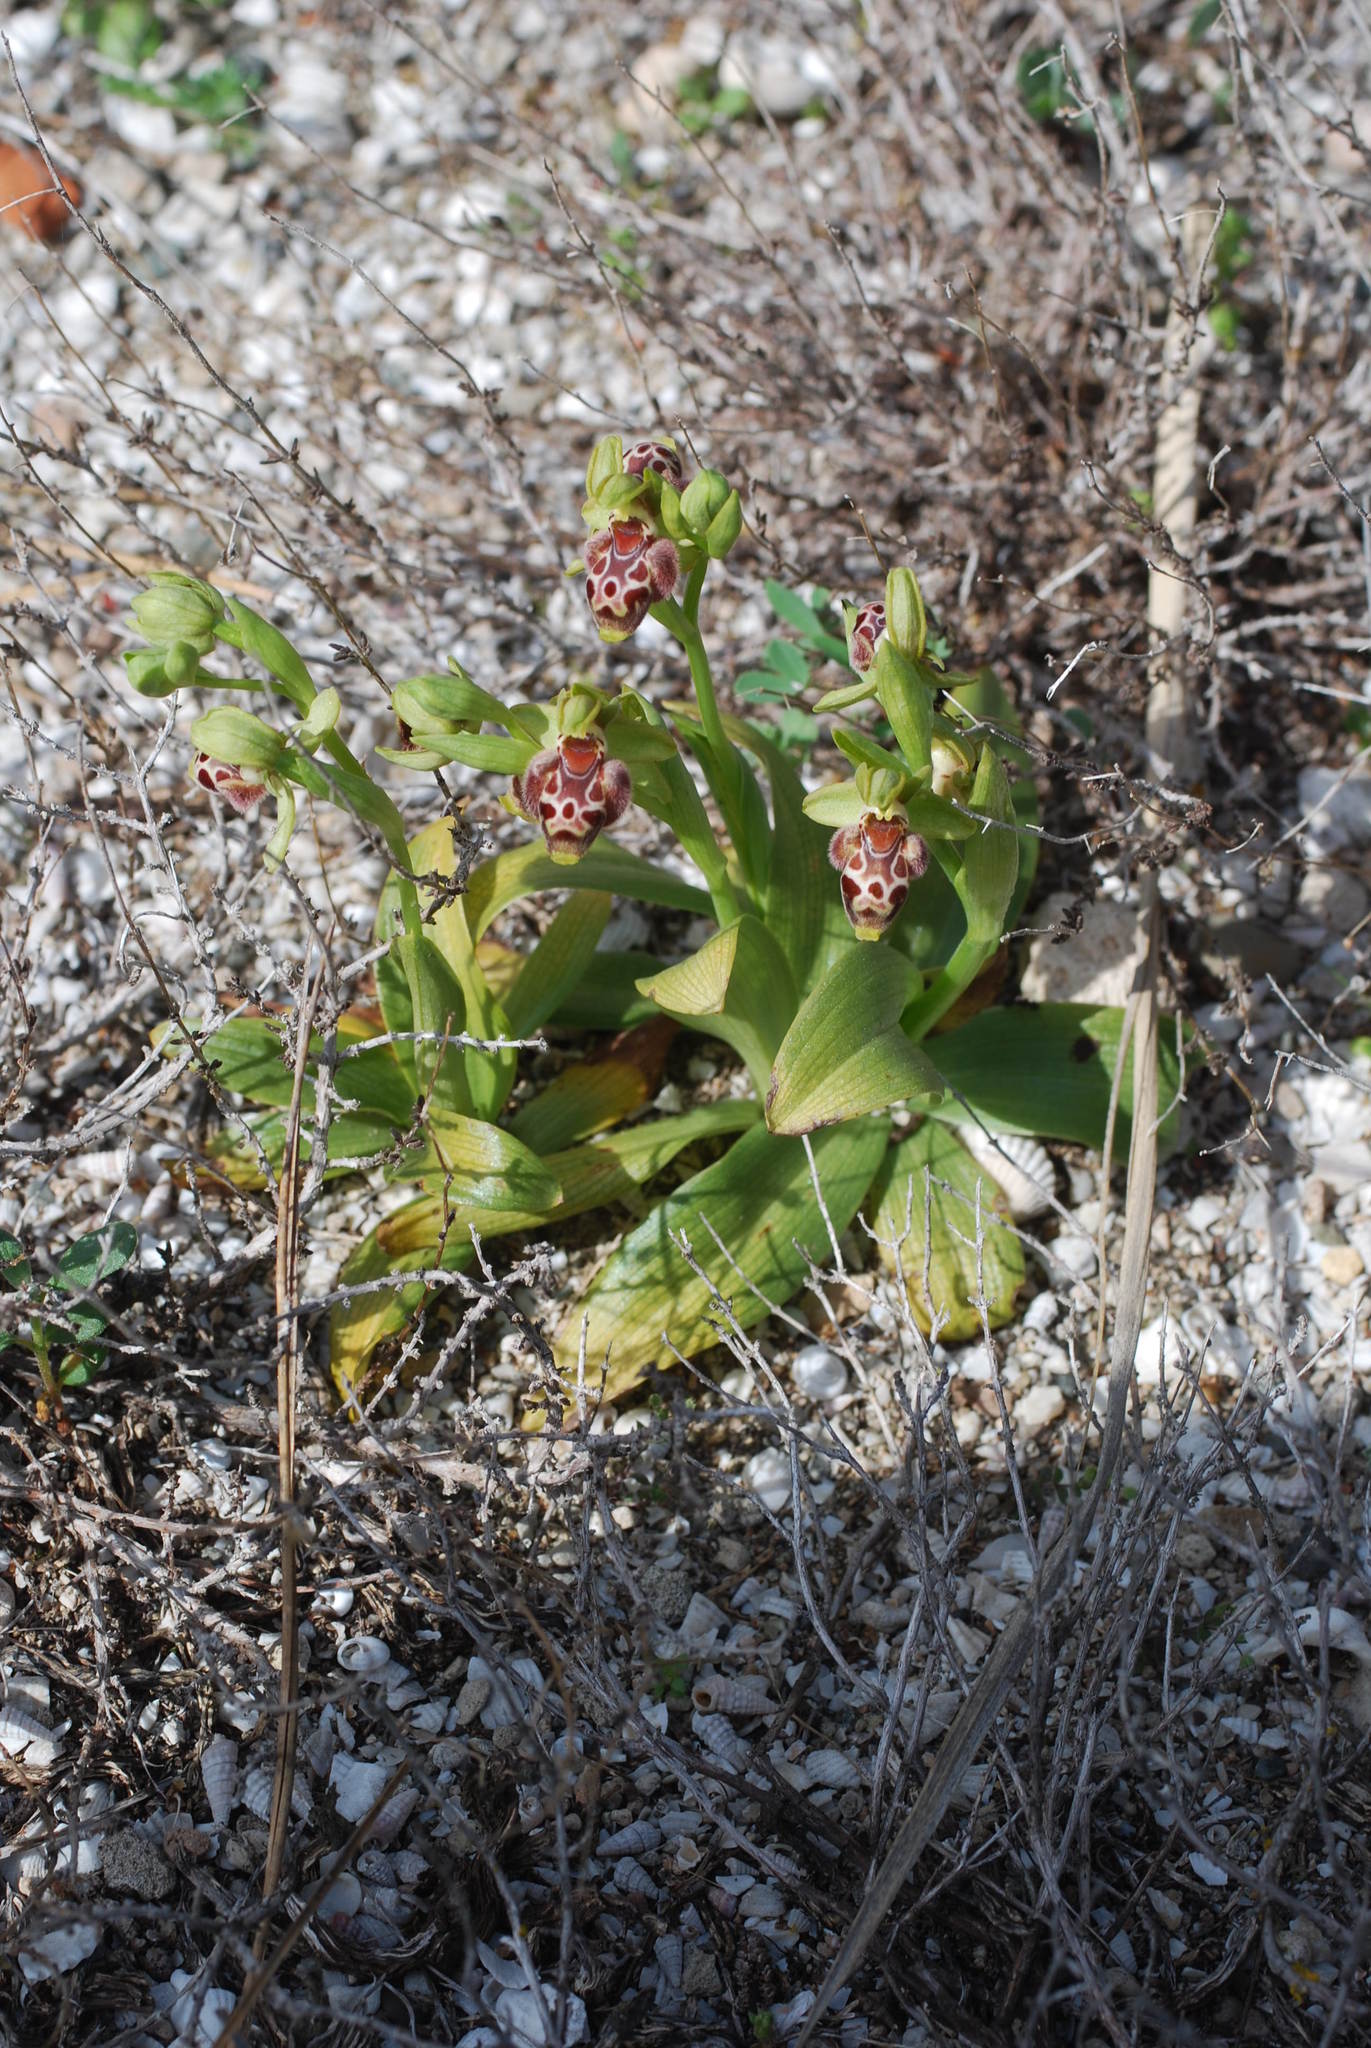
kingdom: Plantae
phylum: Tracheophyta
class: Liliopsida
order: Asparagales
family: Orchidaceae
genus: Ophrys
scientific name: Ophrys umbilicata
